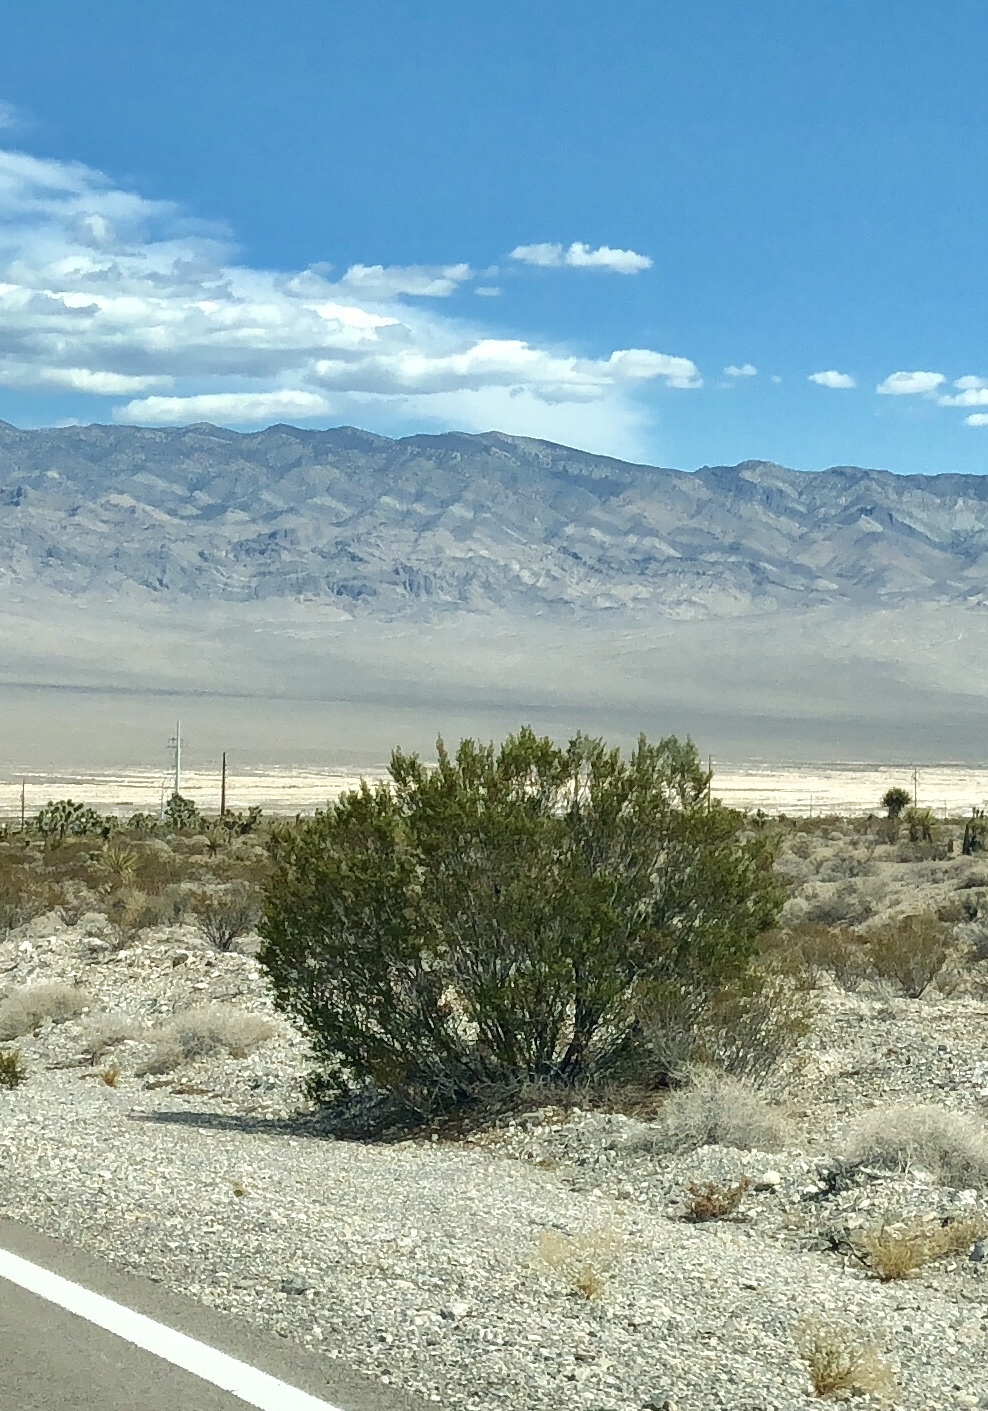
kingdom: Plantae
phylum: Tracheophyta
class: Magnoliopsida
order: Zygophyllales
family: Zygophyllaceae
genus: Larrea
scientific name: Larrea tridentata
